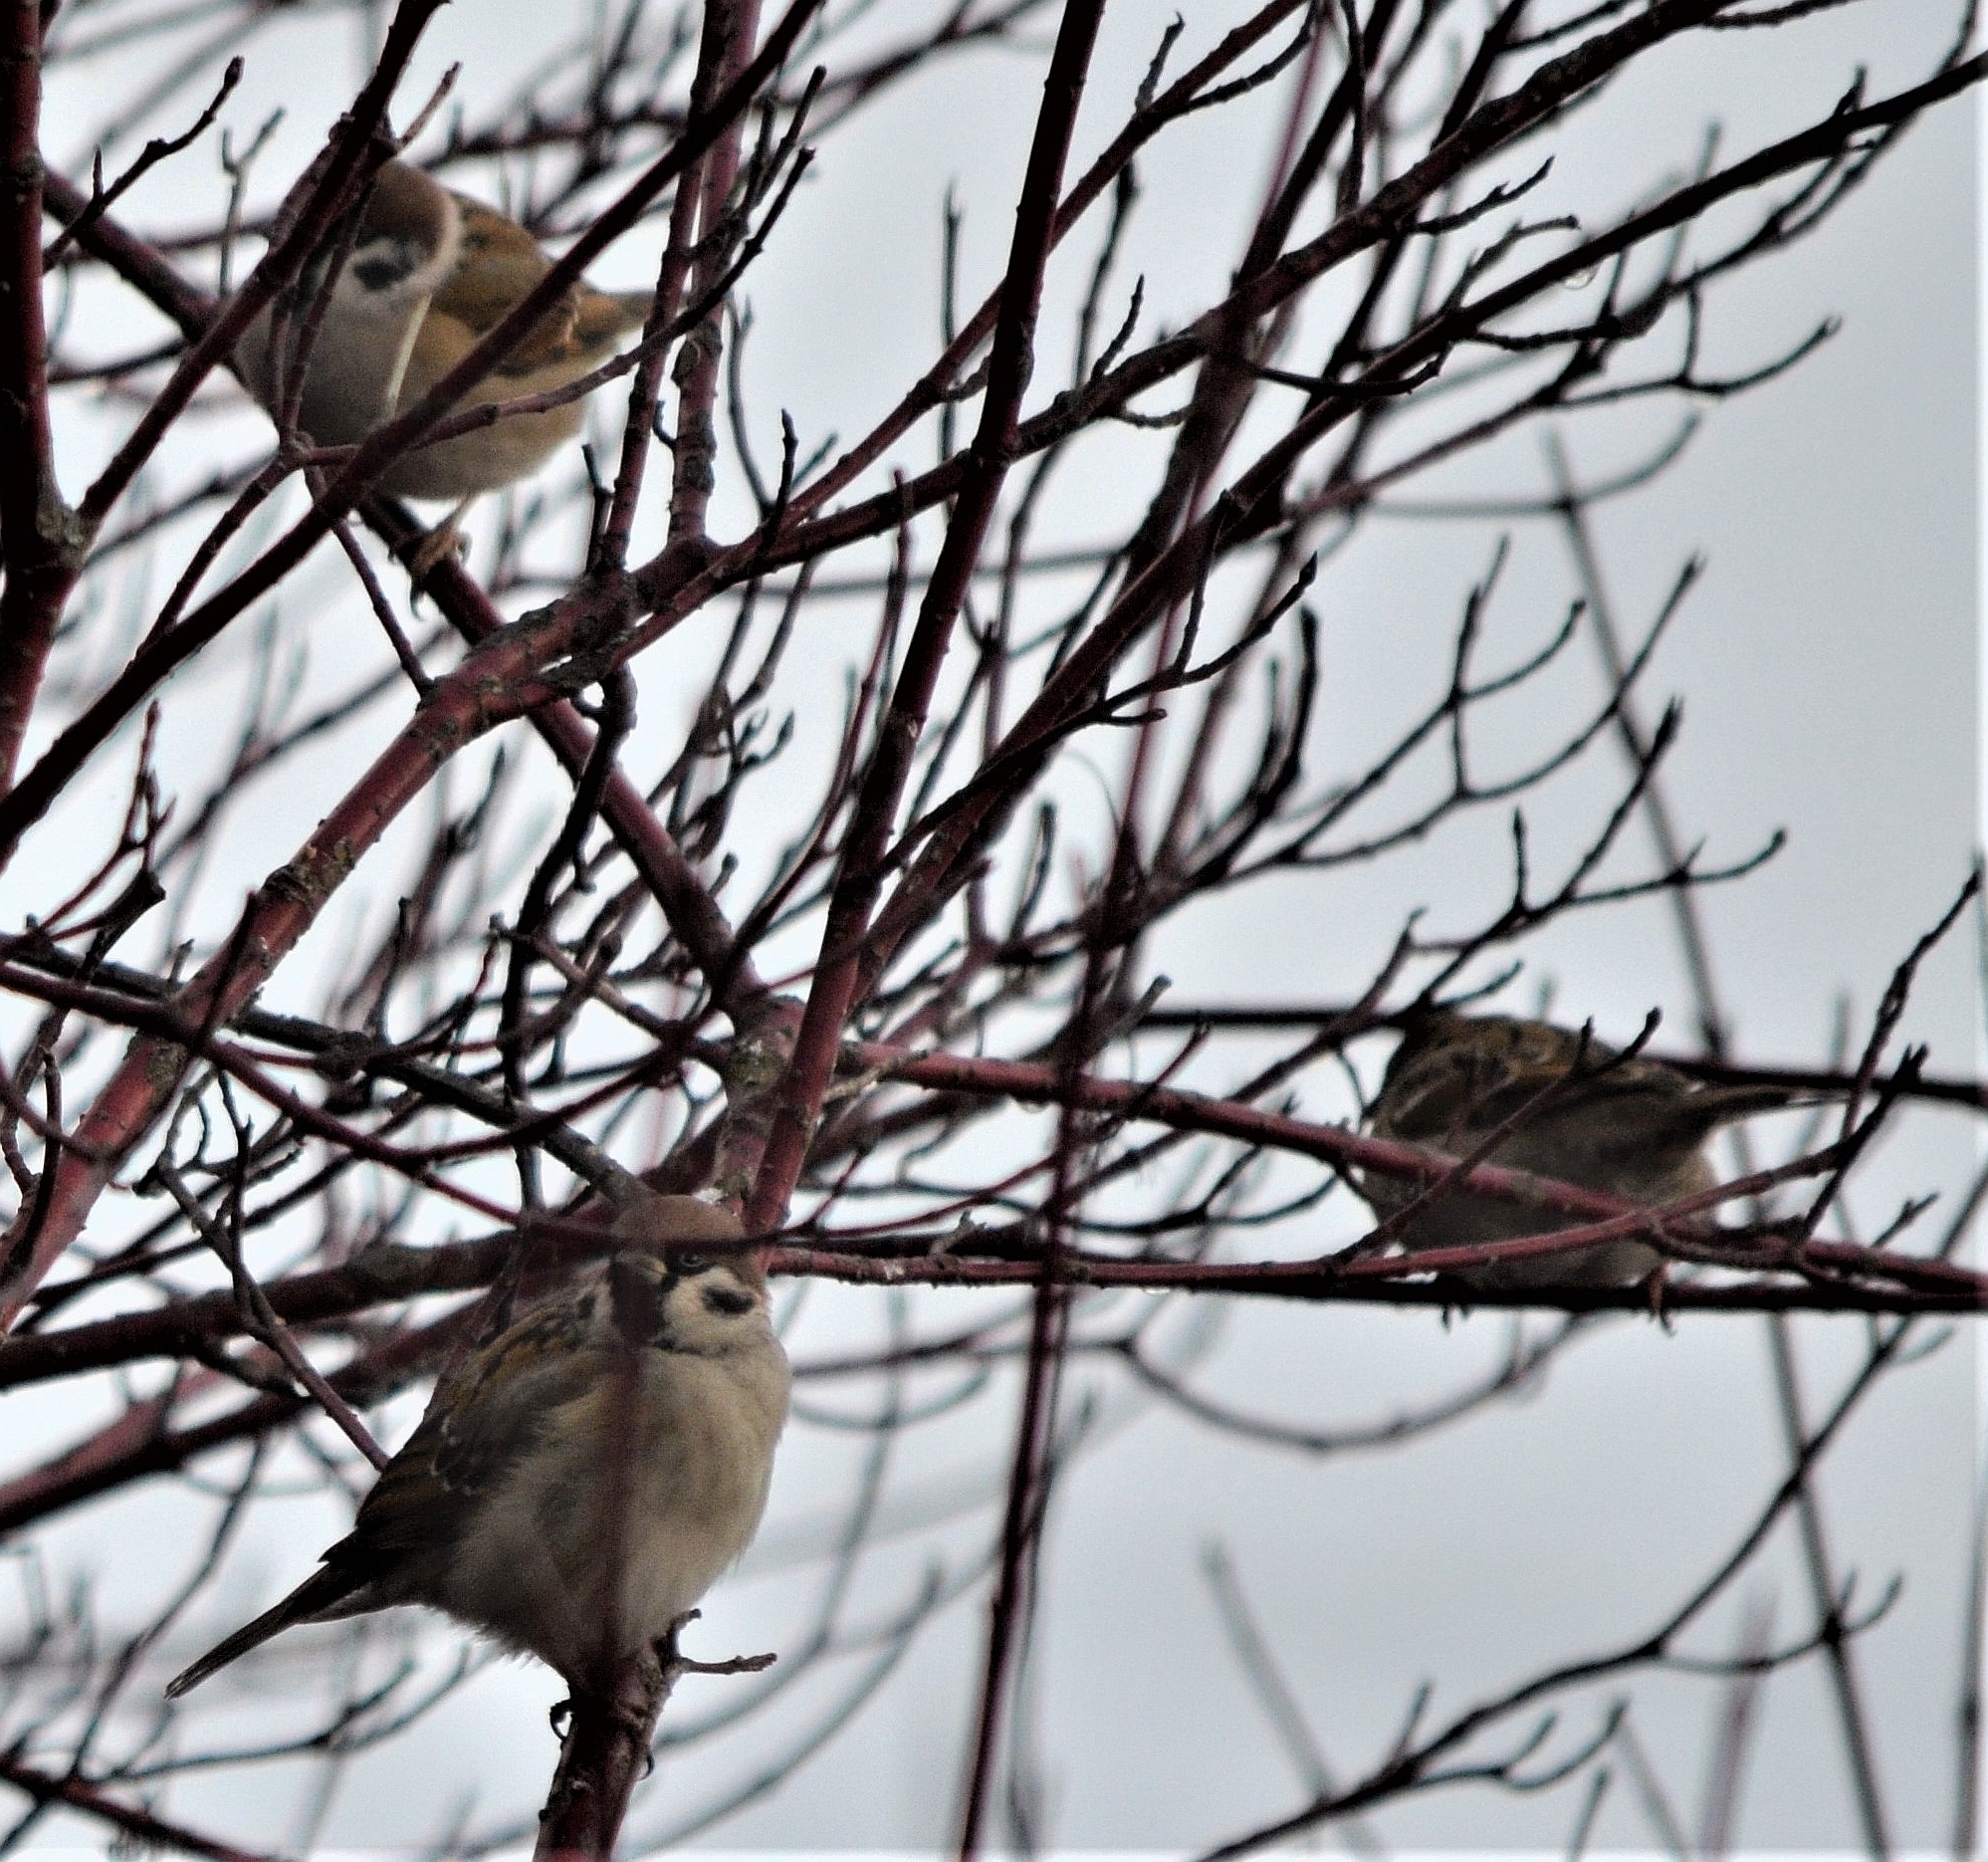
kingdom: Animalia
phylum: Chordata
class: Aves
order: Passeriformes
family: Passeridae
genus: Passer
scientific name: Passer montanus
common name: Eurasian tree sparrow
